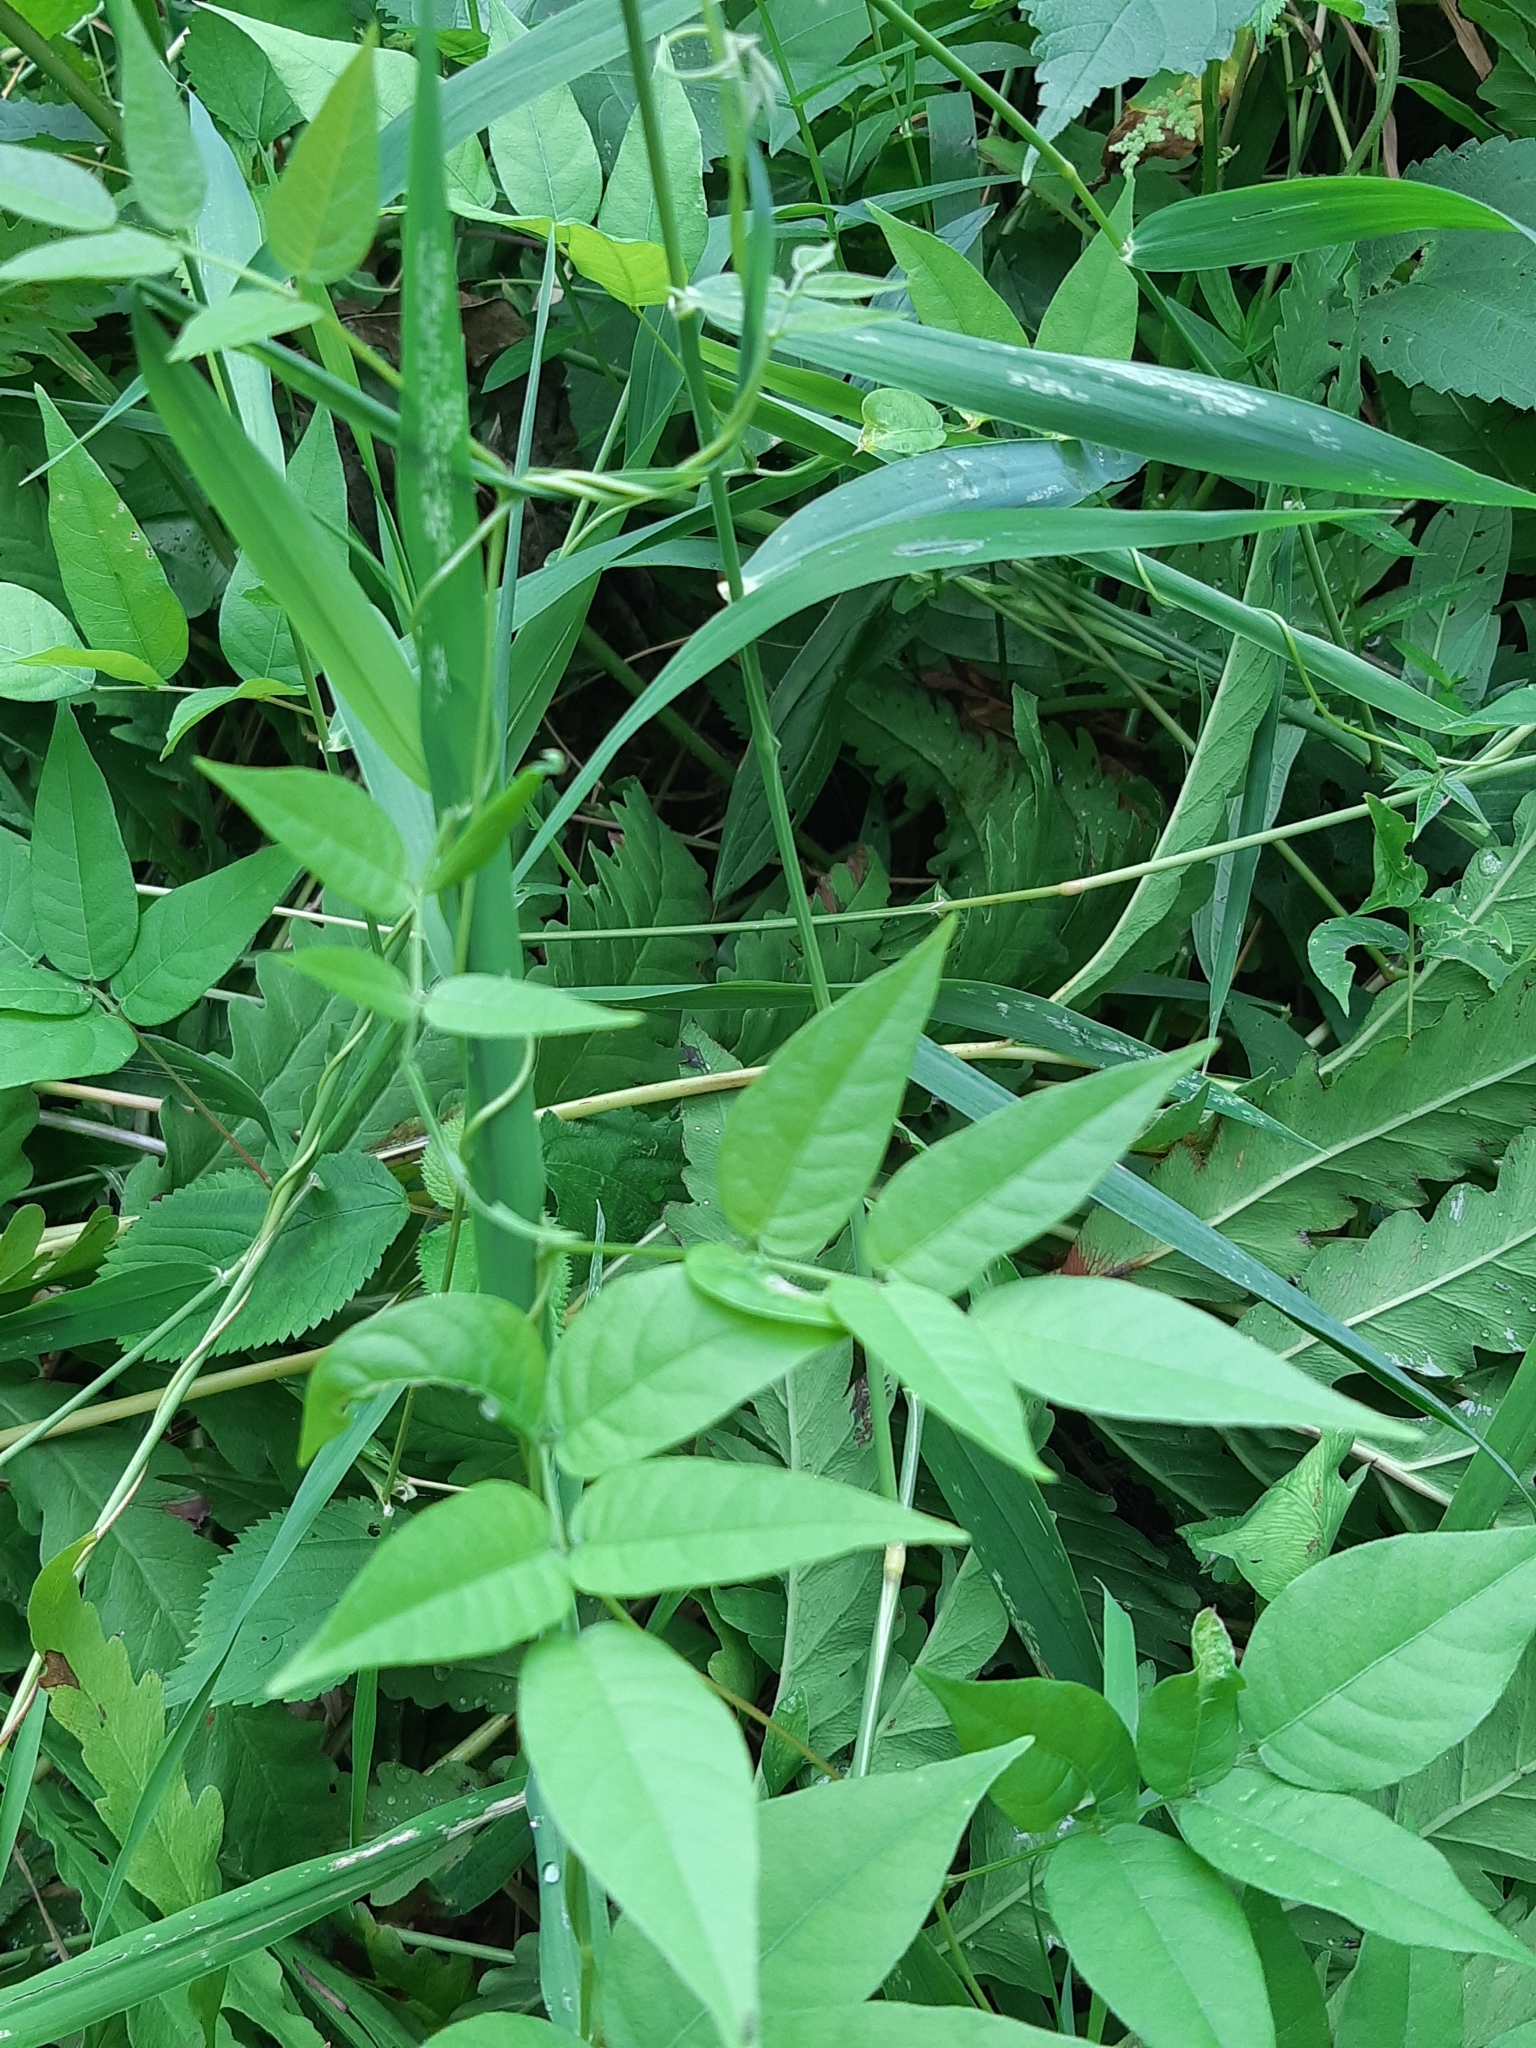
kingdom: Plantae
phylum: Tracheophyta
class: Magnoliopsida
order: Fabales
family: Fabaceae
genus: Apios
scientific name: Apios americana
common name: American potato-bean
